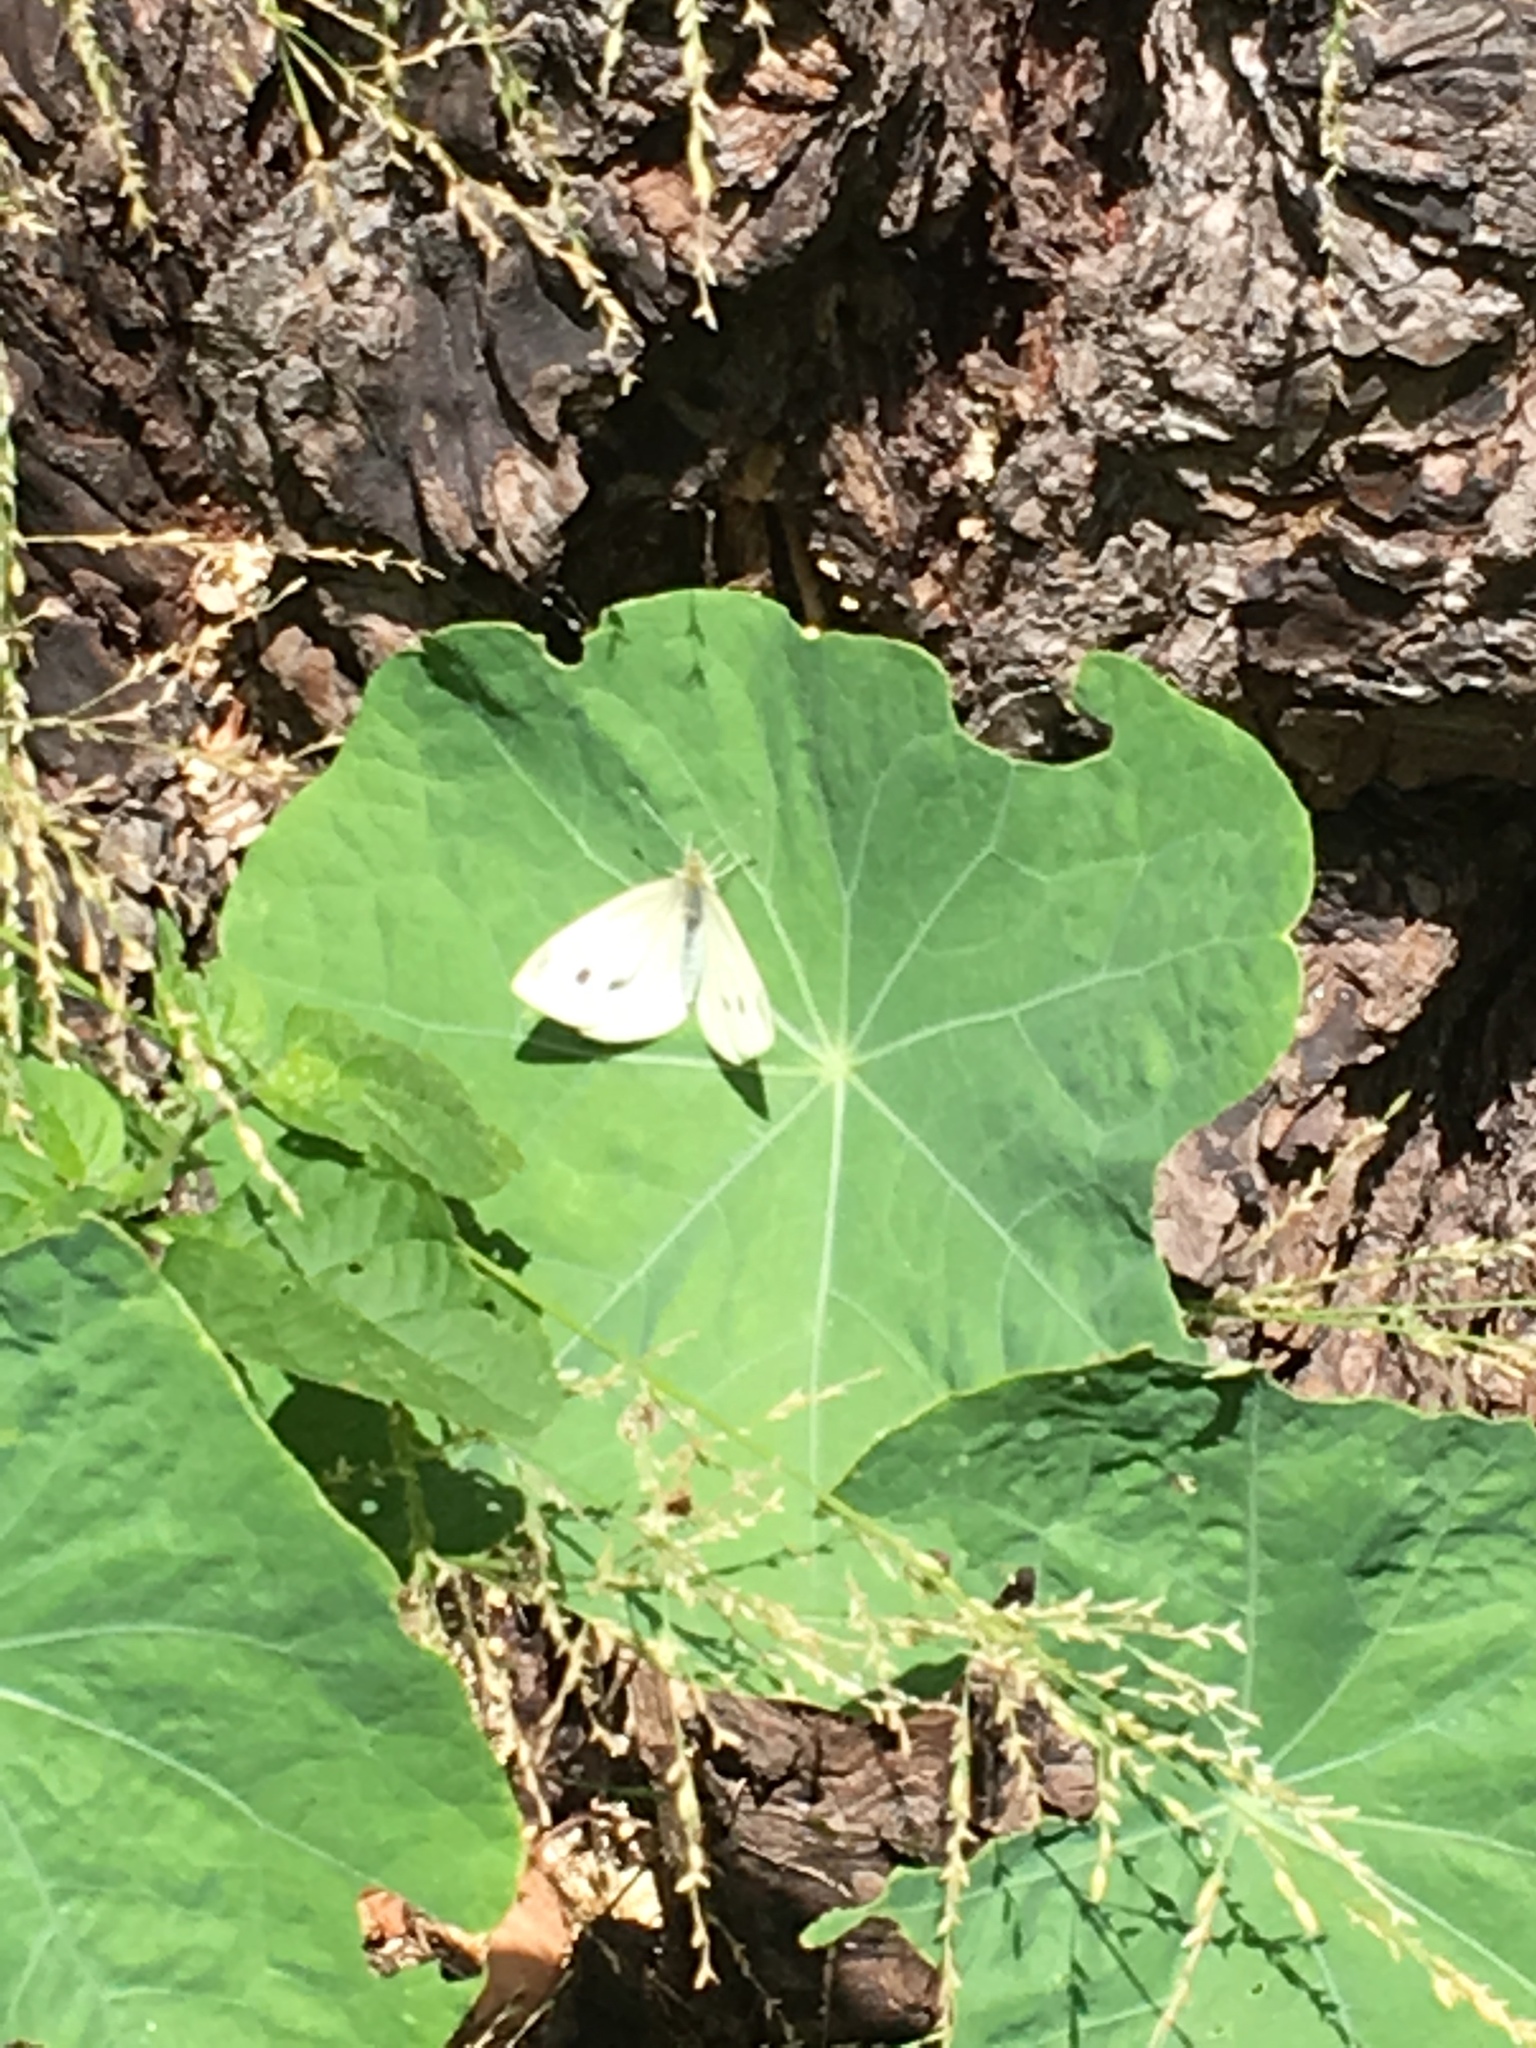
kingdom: Animalia
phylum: Arthropoda
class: Insecta
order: Lepidoptera
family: Pieridae
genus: Pieris
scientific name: Pieris rapae
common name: Small white
